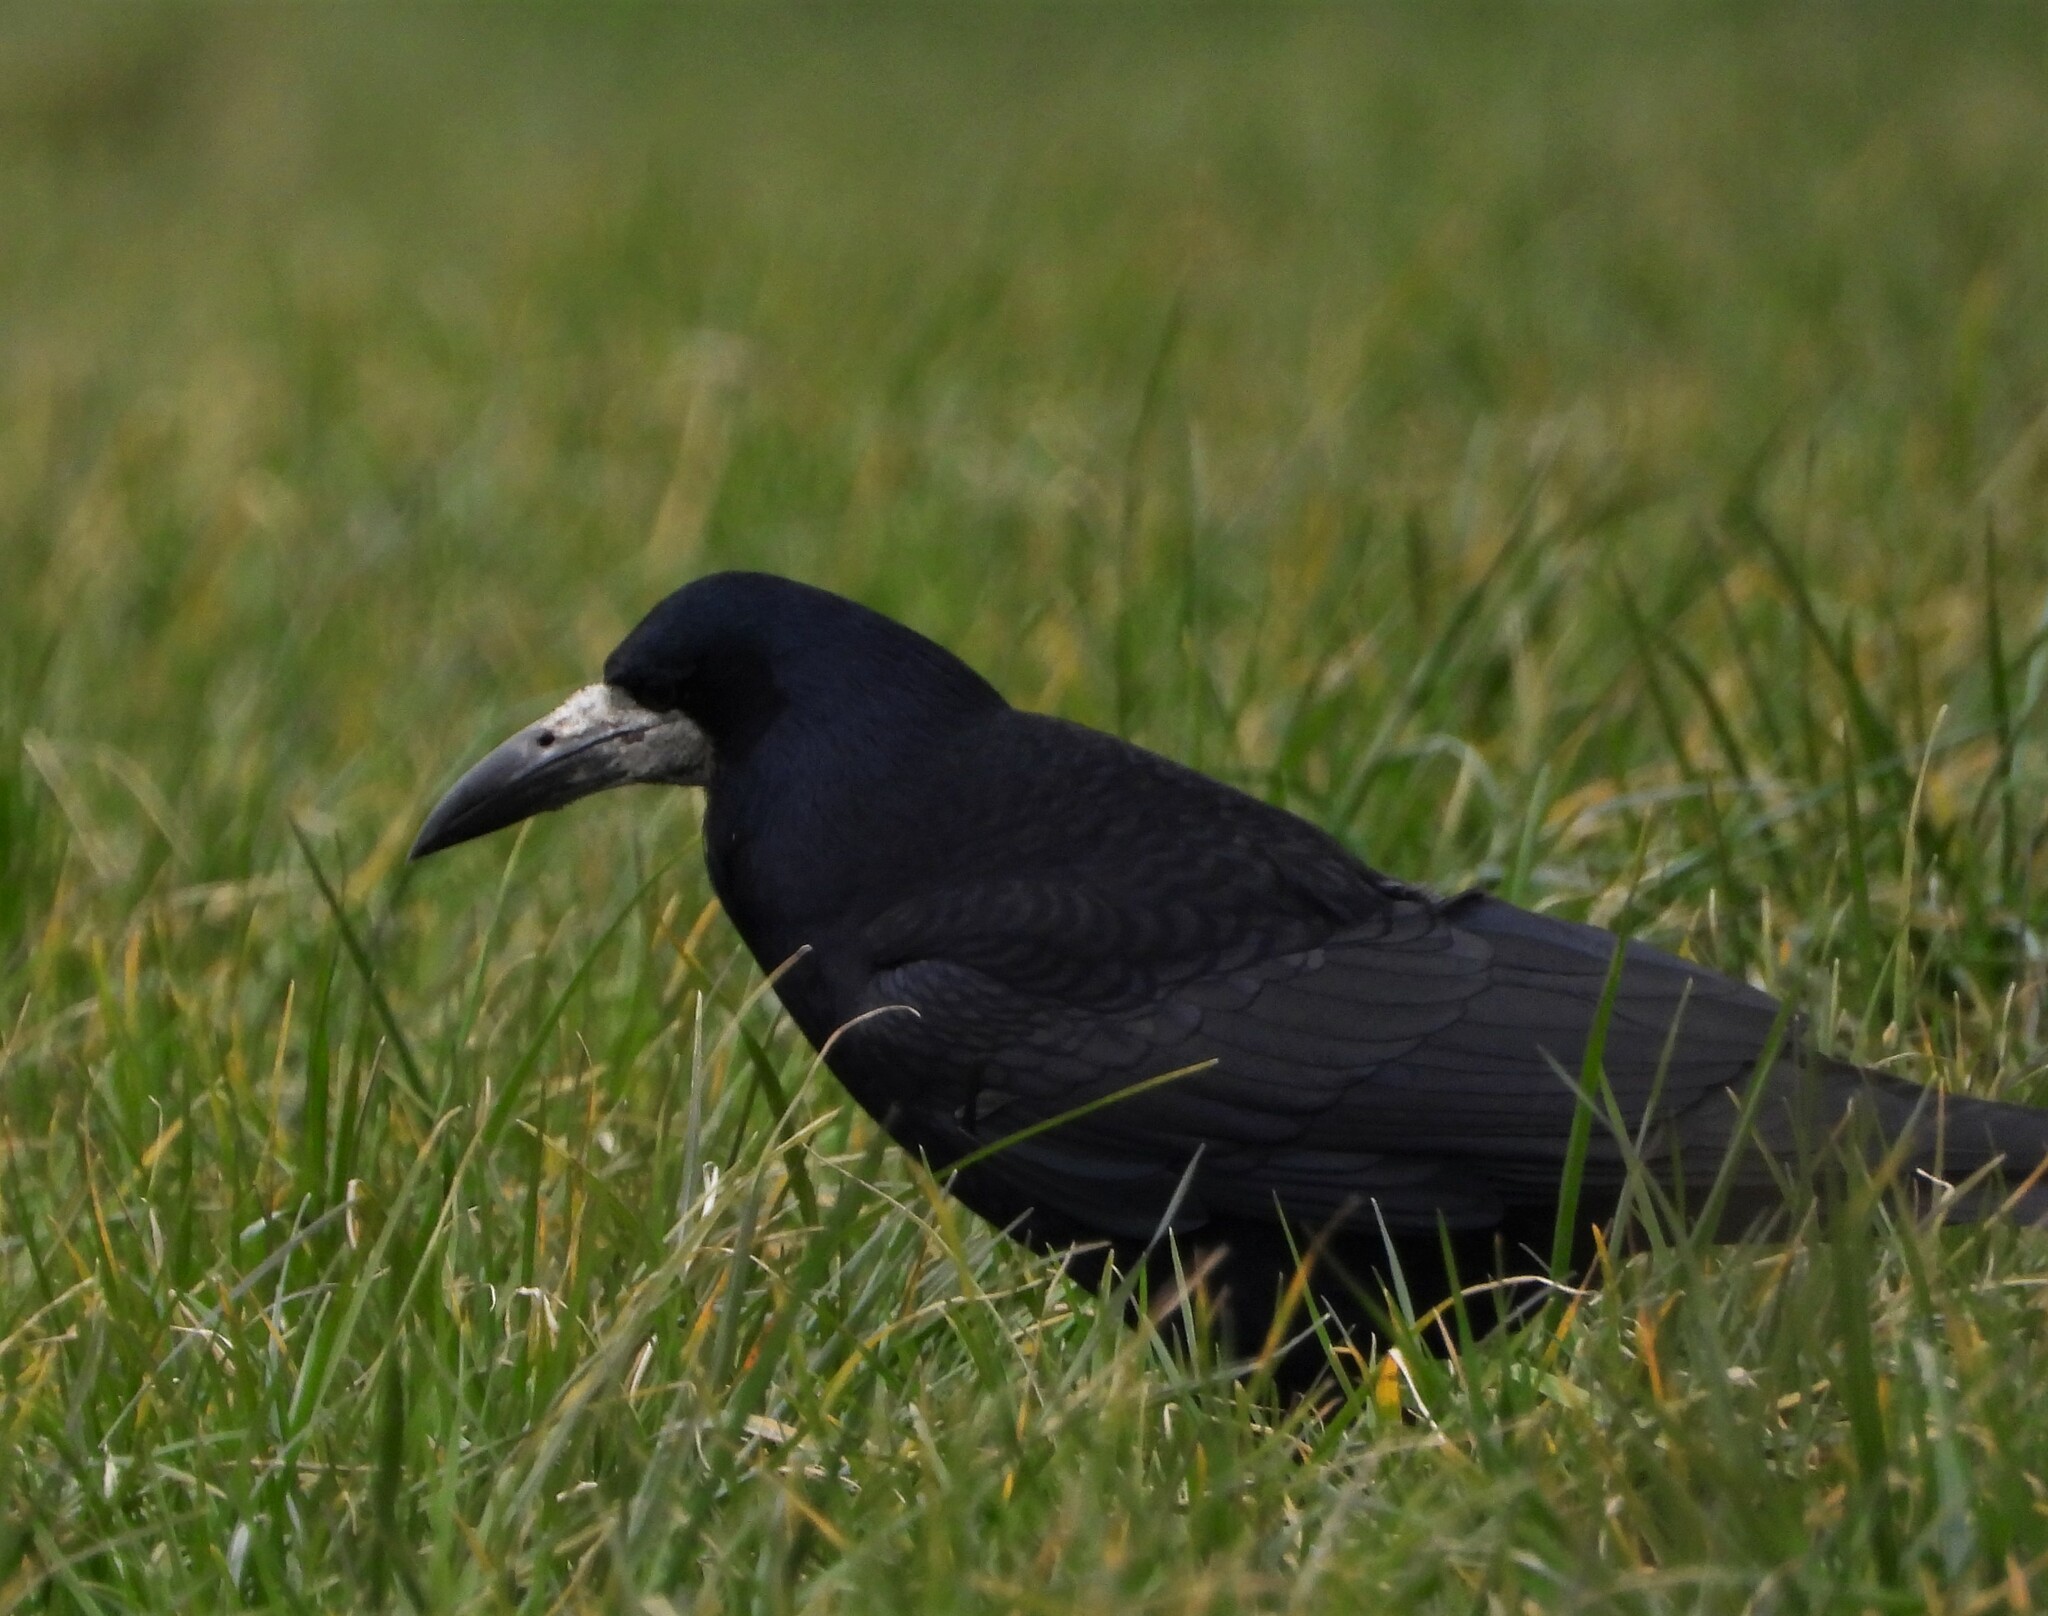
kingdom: Animalia
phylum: Chordata
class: Aves
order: Passeriformes
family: Corvidae
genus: Corvus
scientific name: Corvus frugilegus
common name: Rook
